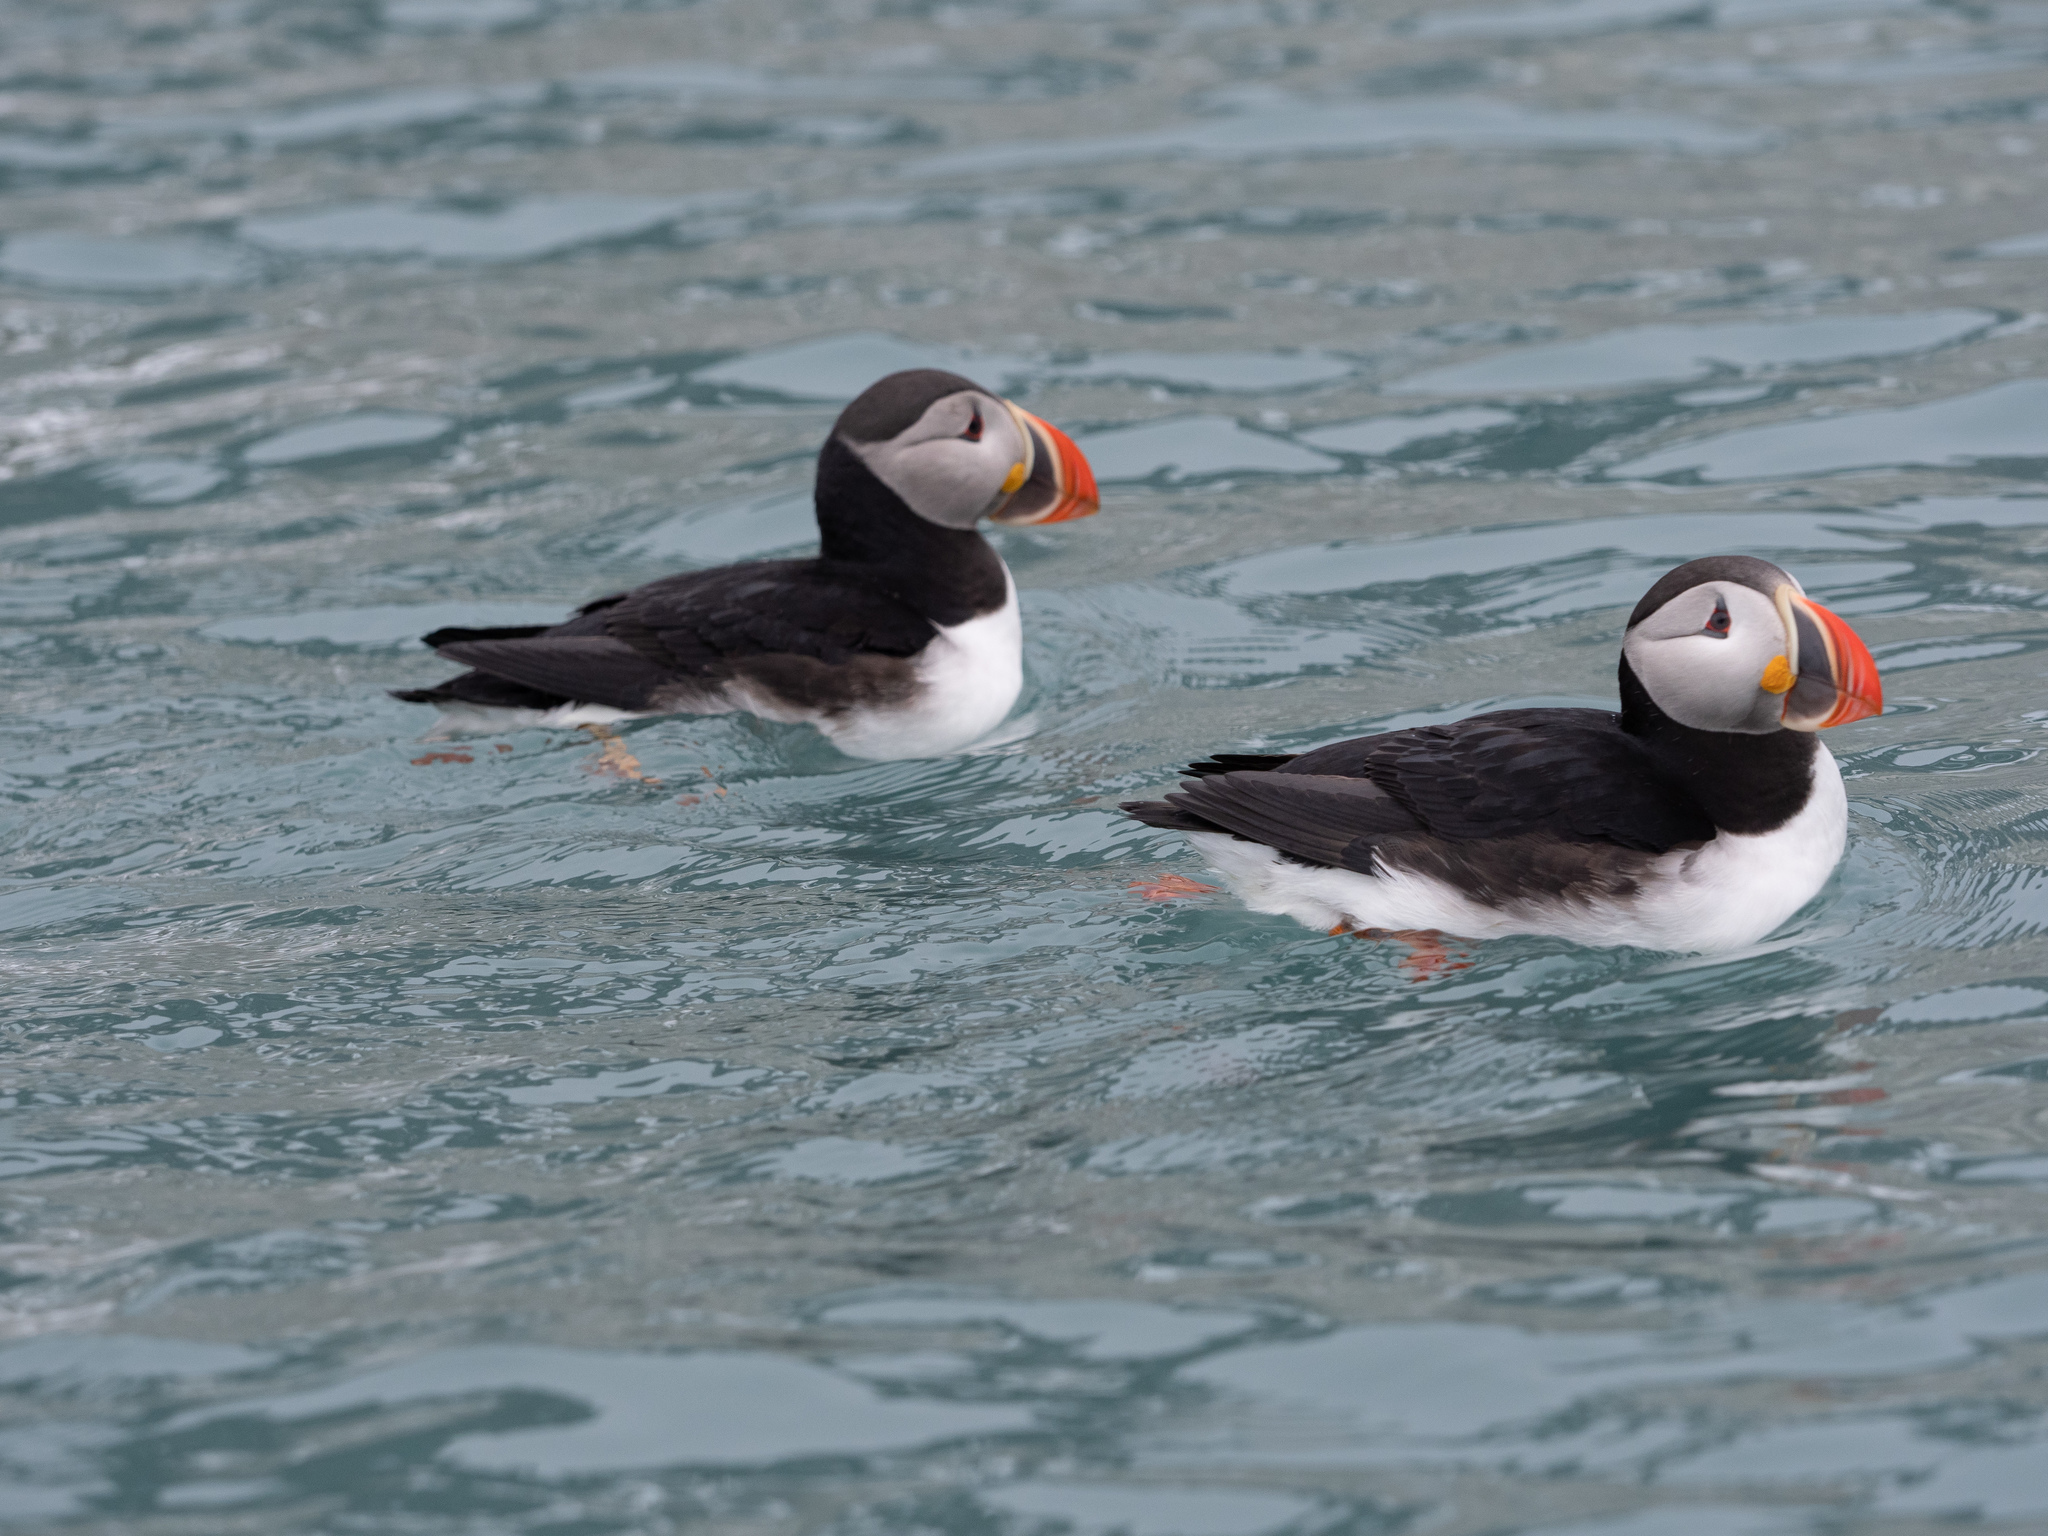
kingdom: Animalia
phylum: Chordata
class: Aves
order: Charadriiformes
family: Alcidae
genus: Fratercula
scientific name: Fratercula arctica
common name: Atlantic puffin
